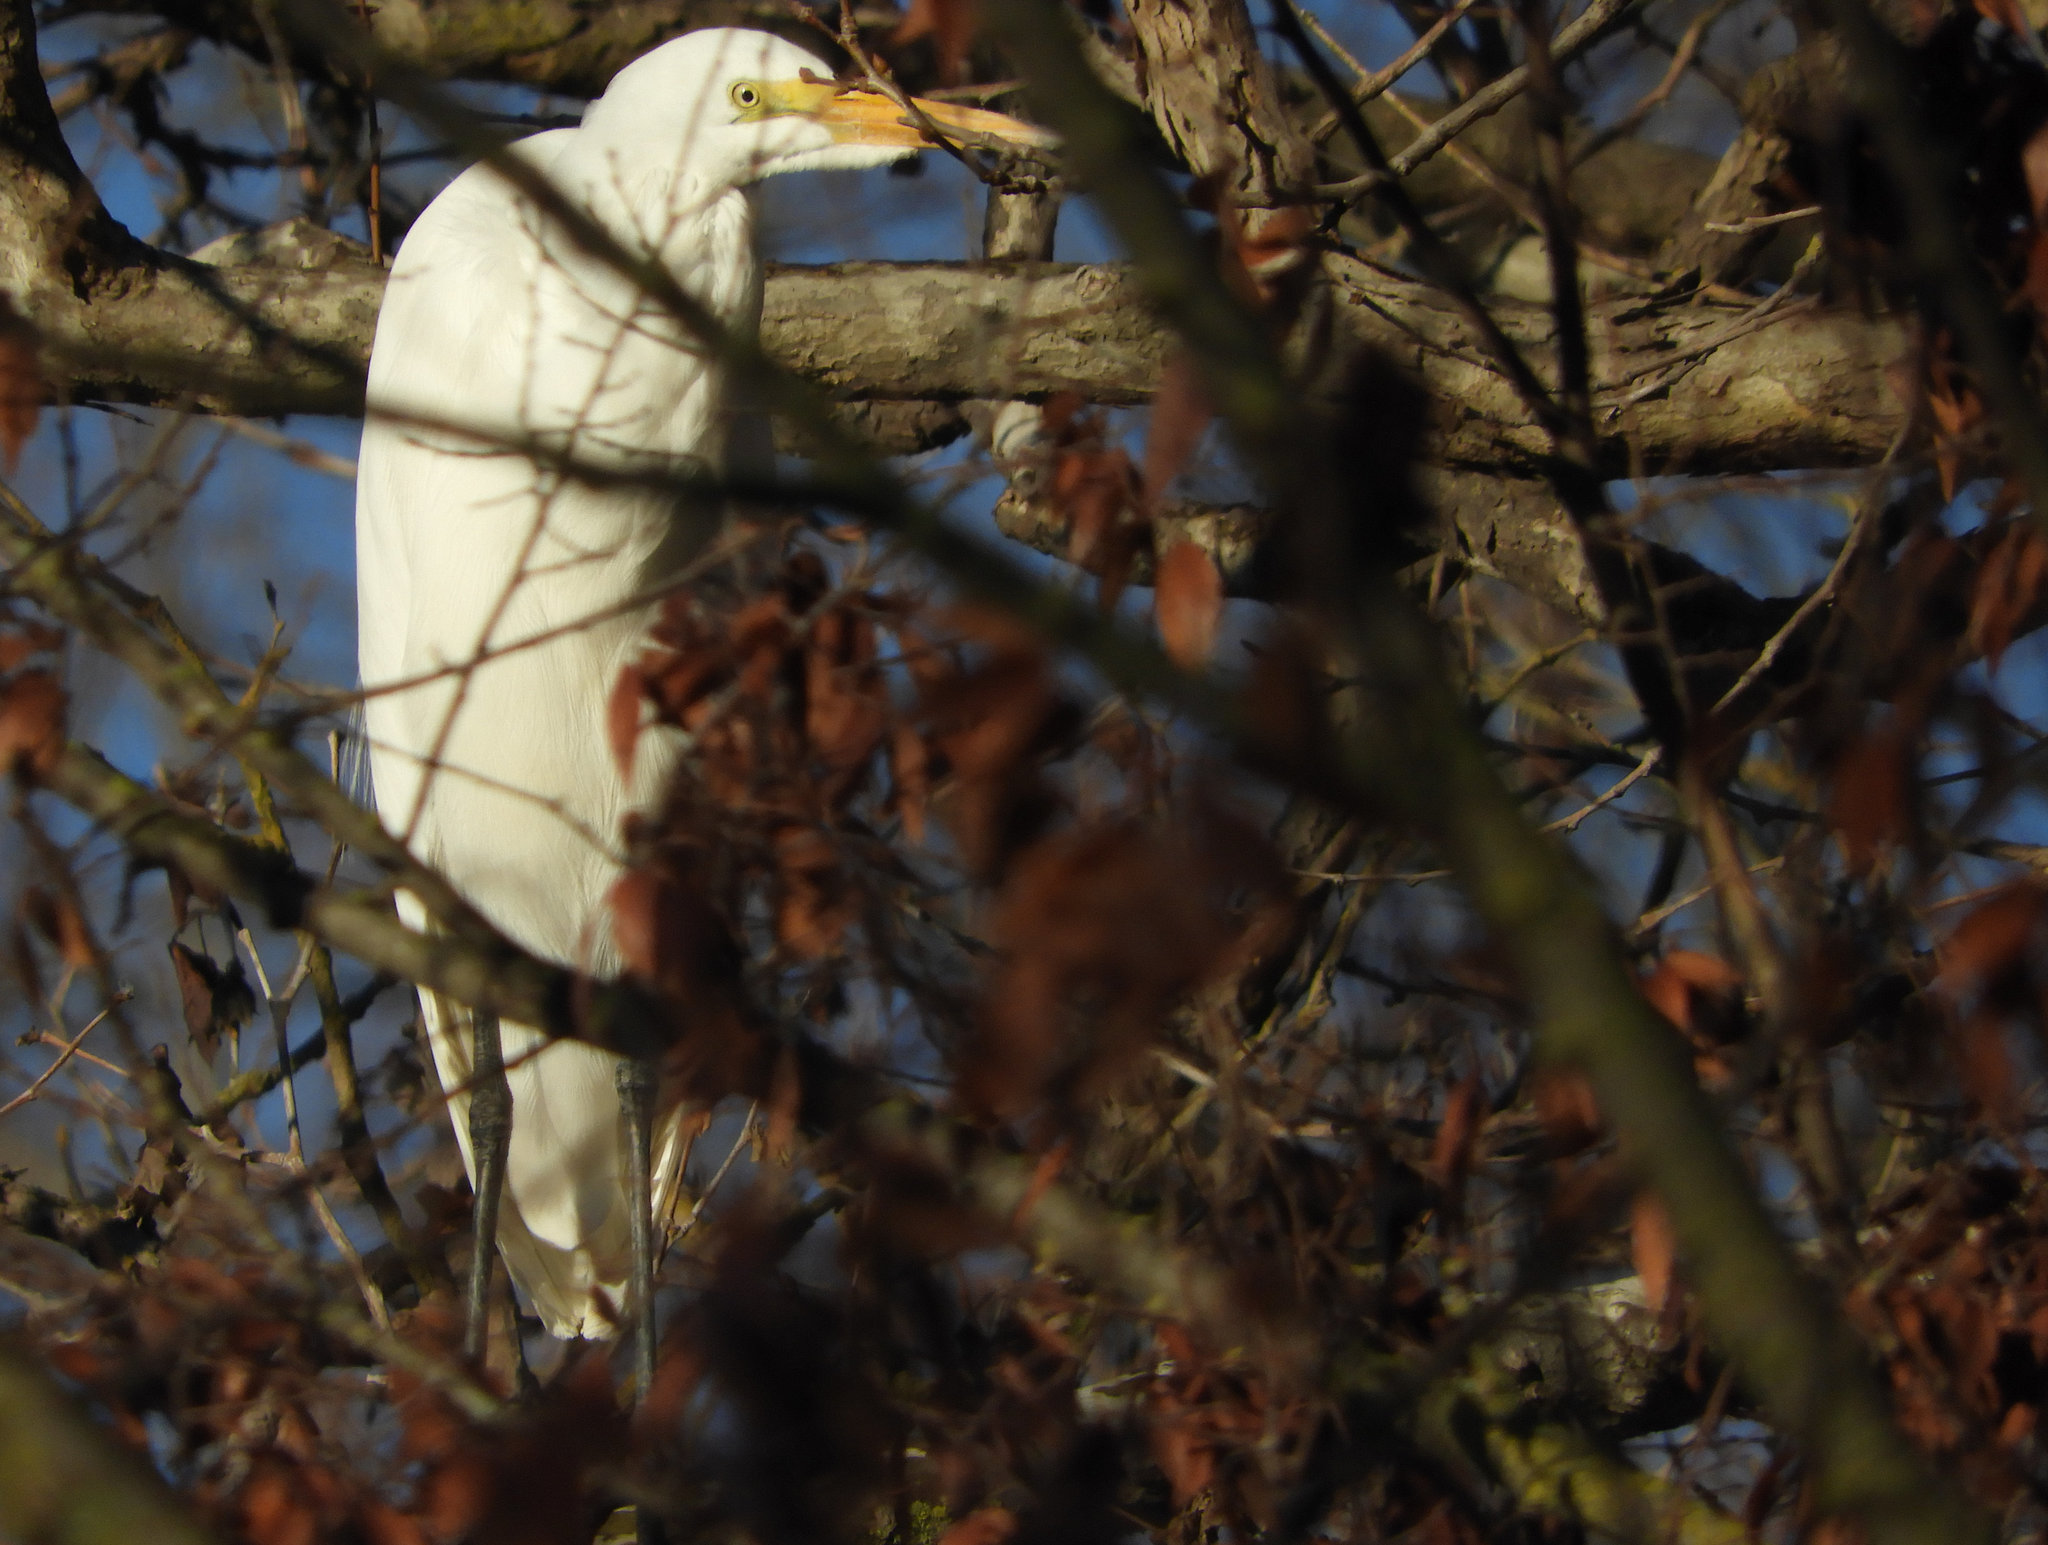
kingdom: Animalia
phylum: Chordata
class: Aves
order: Pelecaniformes
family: Ardeidae
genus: Ardea
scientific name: Ardea alba
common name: Great egret
